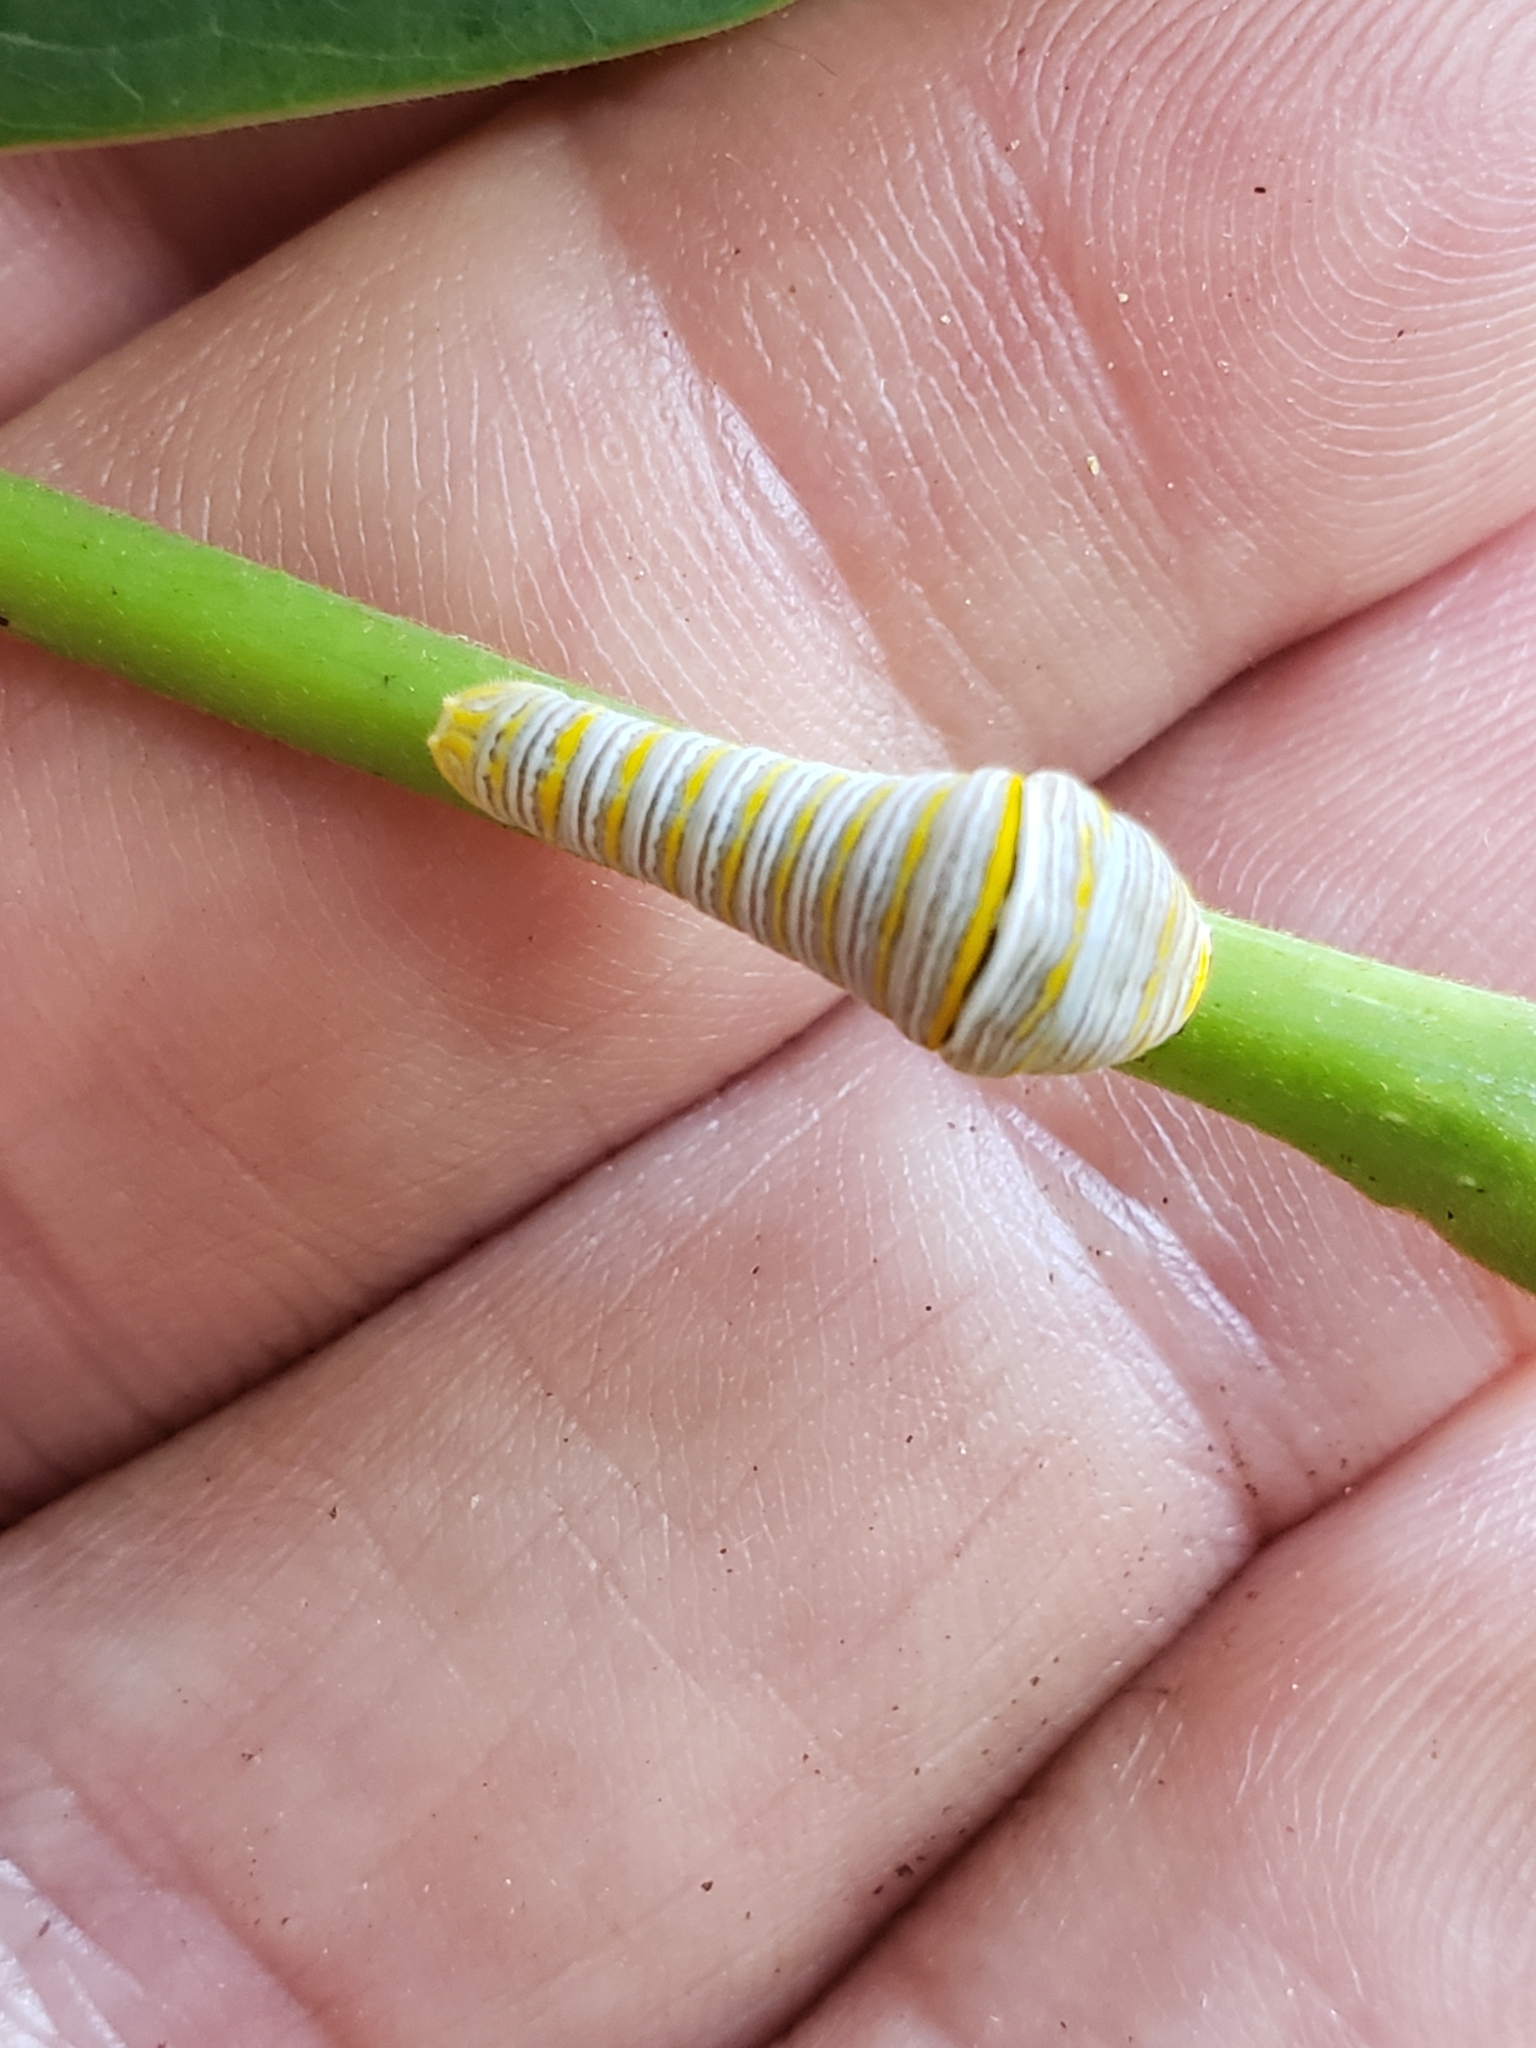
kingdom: Animalia
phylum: Arthropoda
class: Insecta
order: Lepidoptera
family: Papilionidae
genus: Protographium
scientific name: Protographium marcellus
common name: Zebra swallowtail
